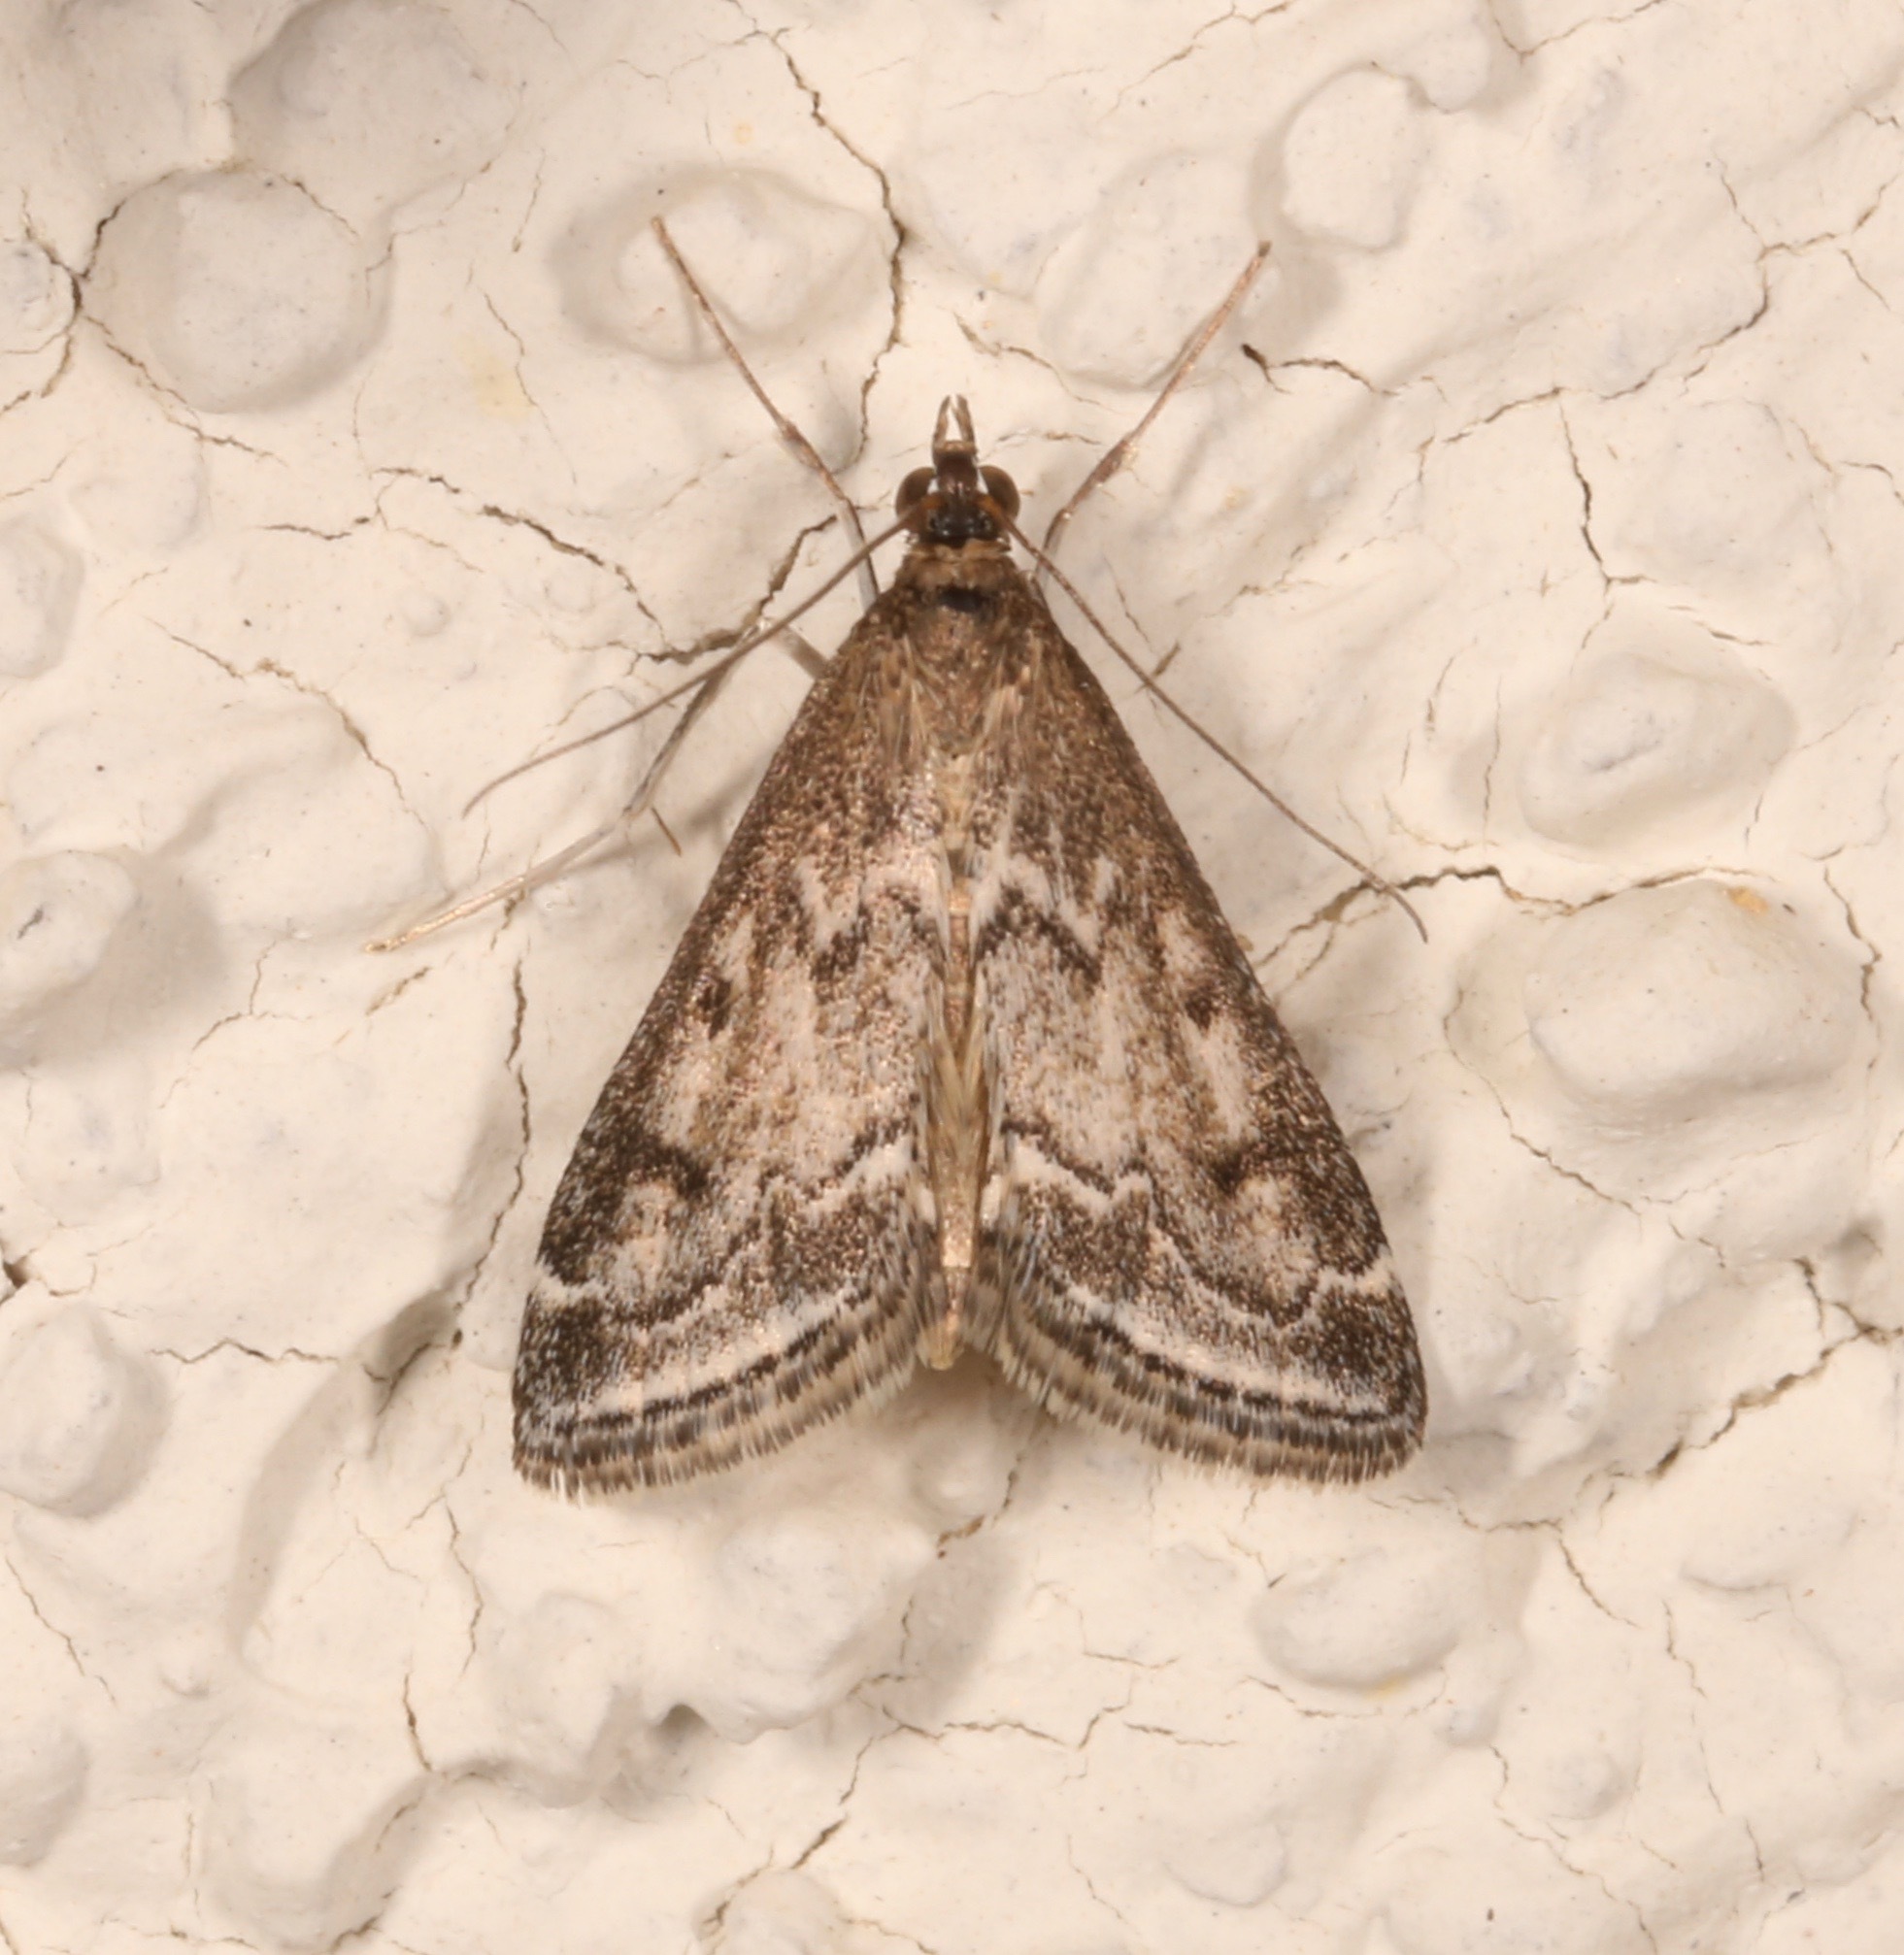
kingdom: Animalia
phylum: Arthropoda
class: Insecta
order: Lepidoptera
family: Crambidae
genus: Pyrausta
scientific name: Pyrausta zonalis
